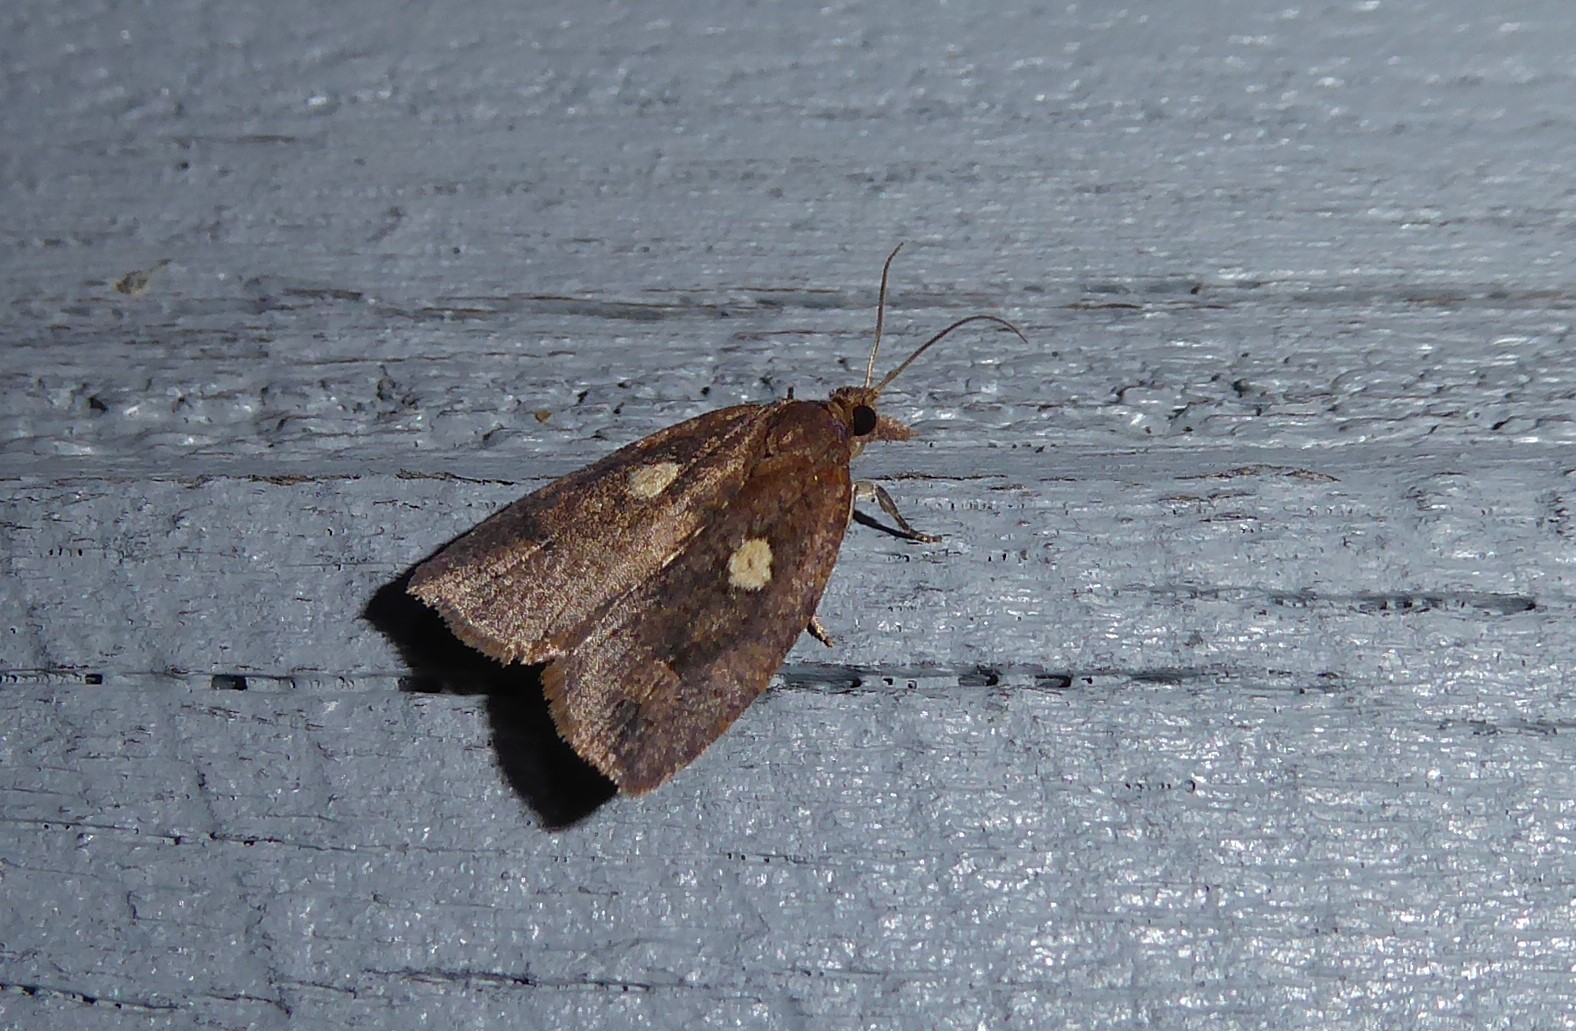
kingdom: Animalia
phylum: Arthropoda
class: Insecta
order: Lepidoptera
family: Tortricidae
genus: Planotortrix
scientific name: Planotortrix excessana
